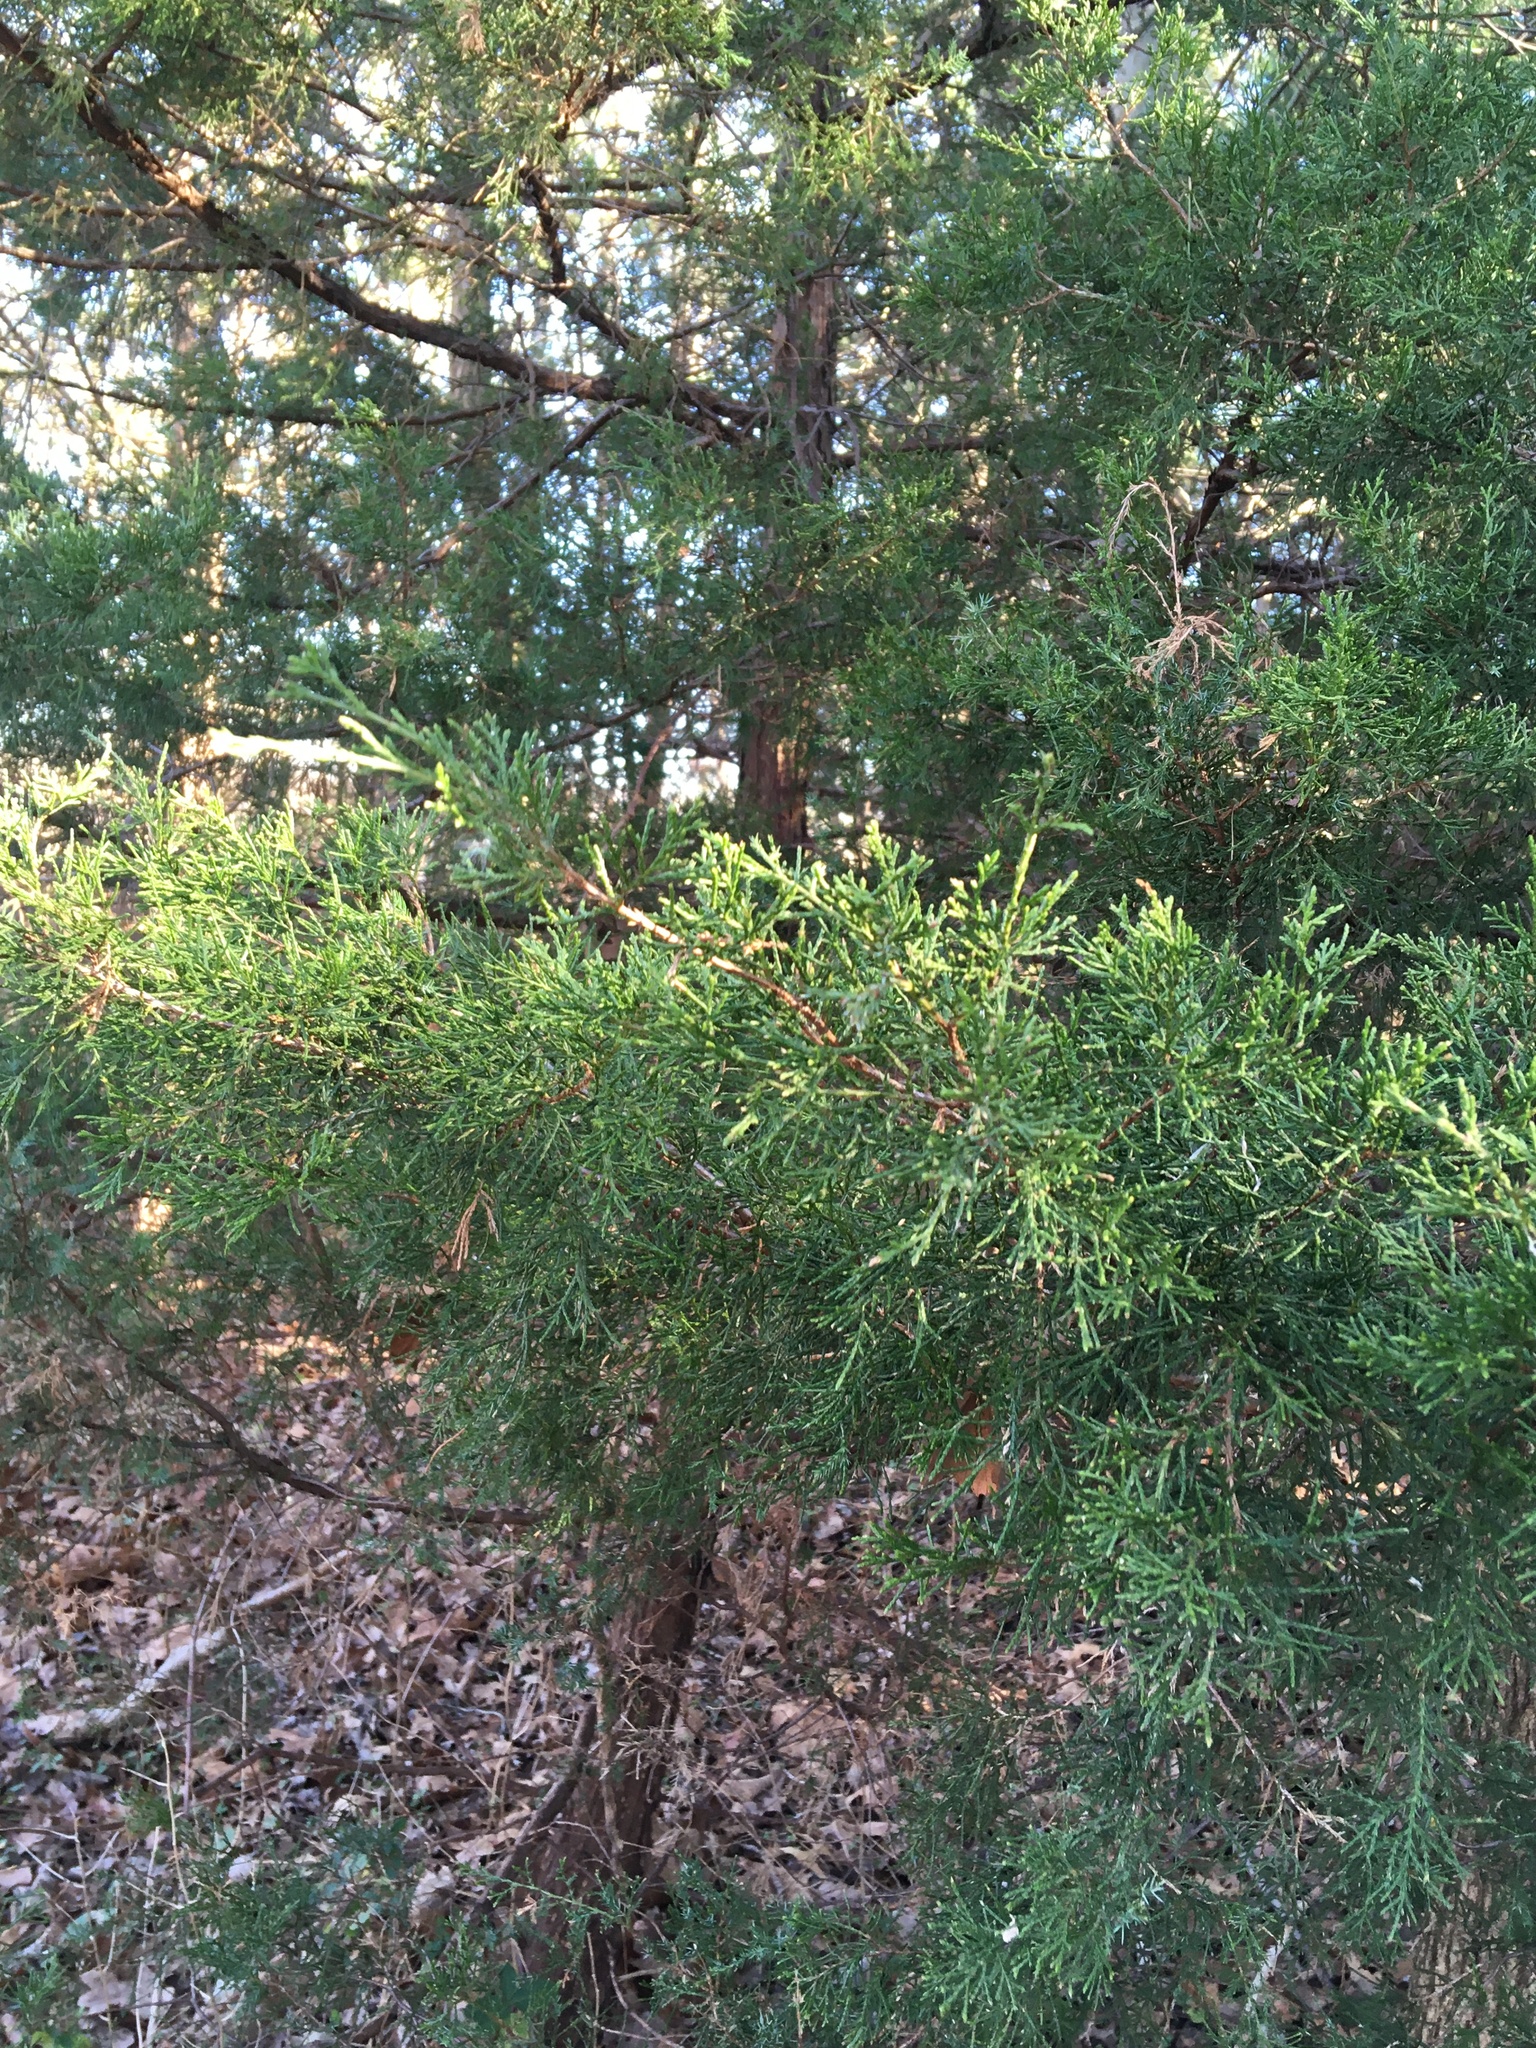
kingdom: Plantae
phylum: Tracheophyta
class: Pinopsida
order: Pinales
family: Cupressaceae
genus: Juniperus
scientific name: Juniperus virginiana
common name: Red juniper
